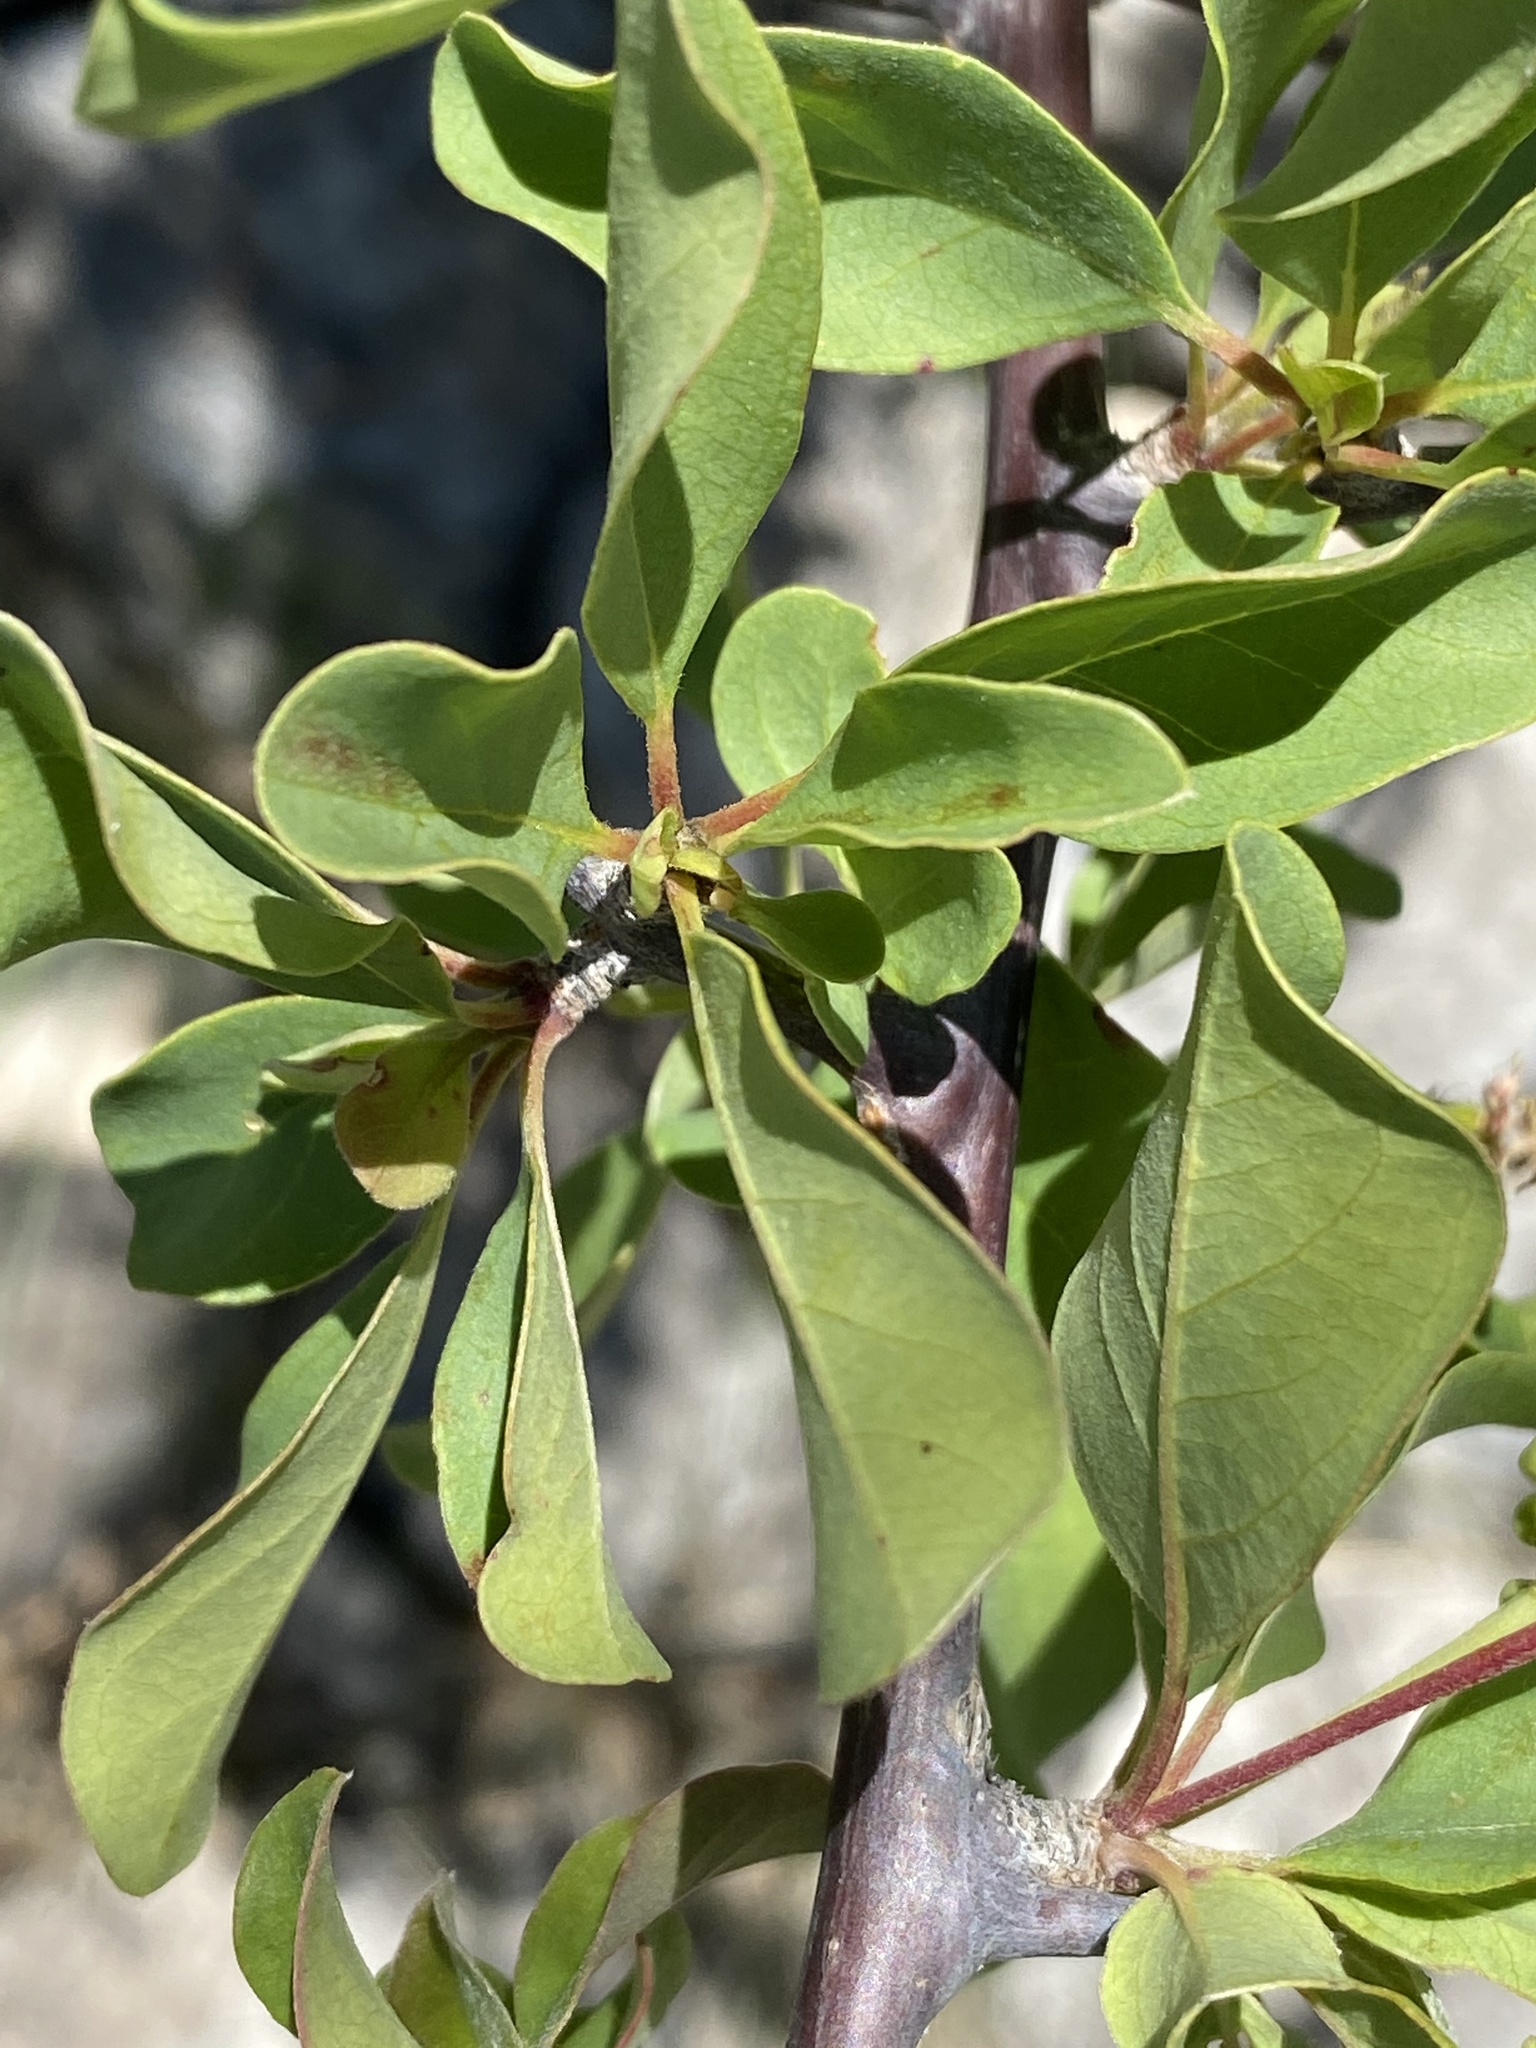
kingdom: Plantae
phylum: Tracheophyta
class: Magnoliopsida
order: Myrtales
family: Combretaceae
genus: Terminalia
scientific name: Terminalia prunioides
